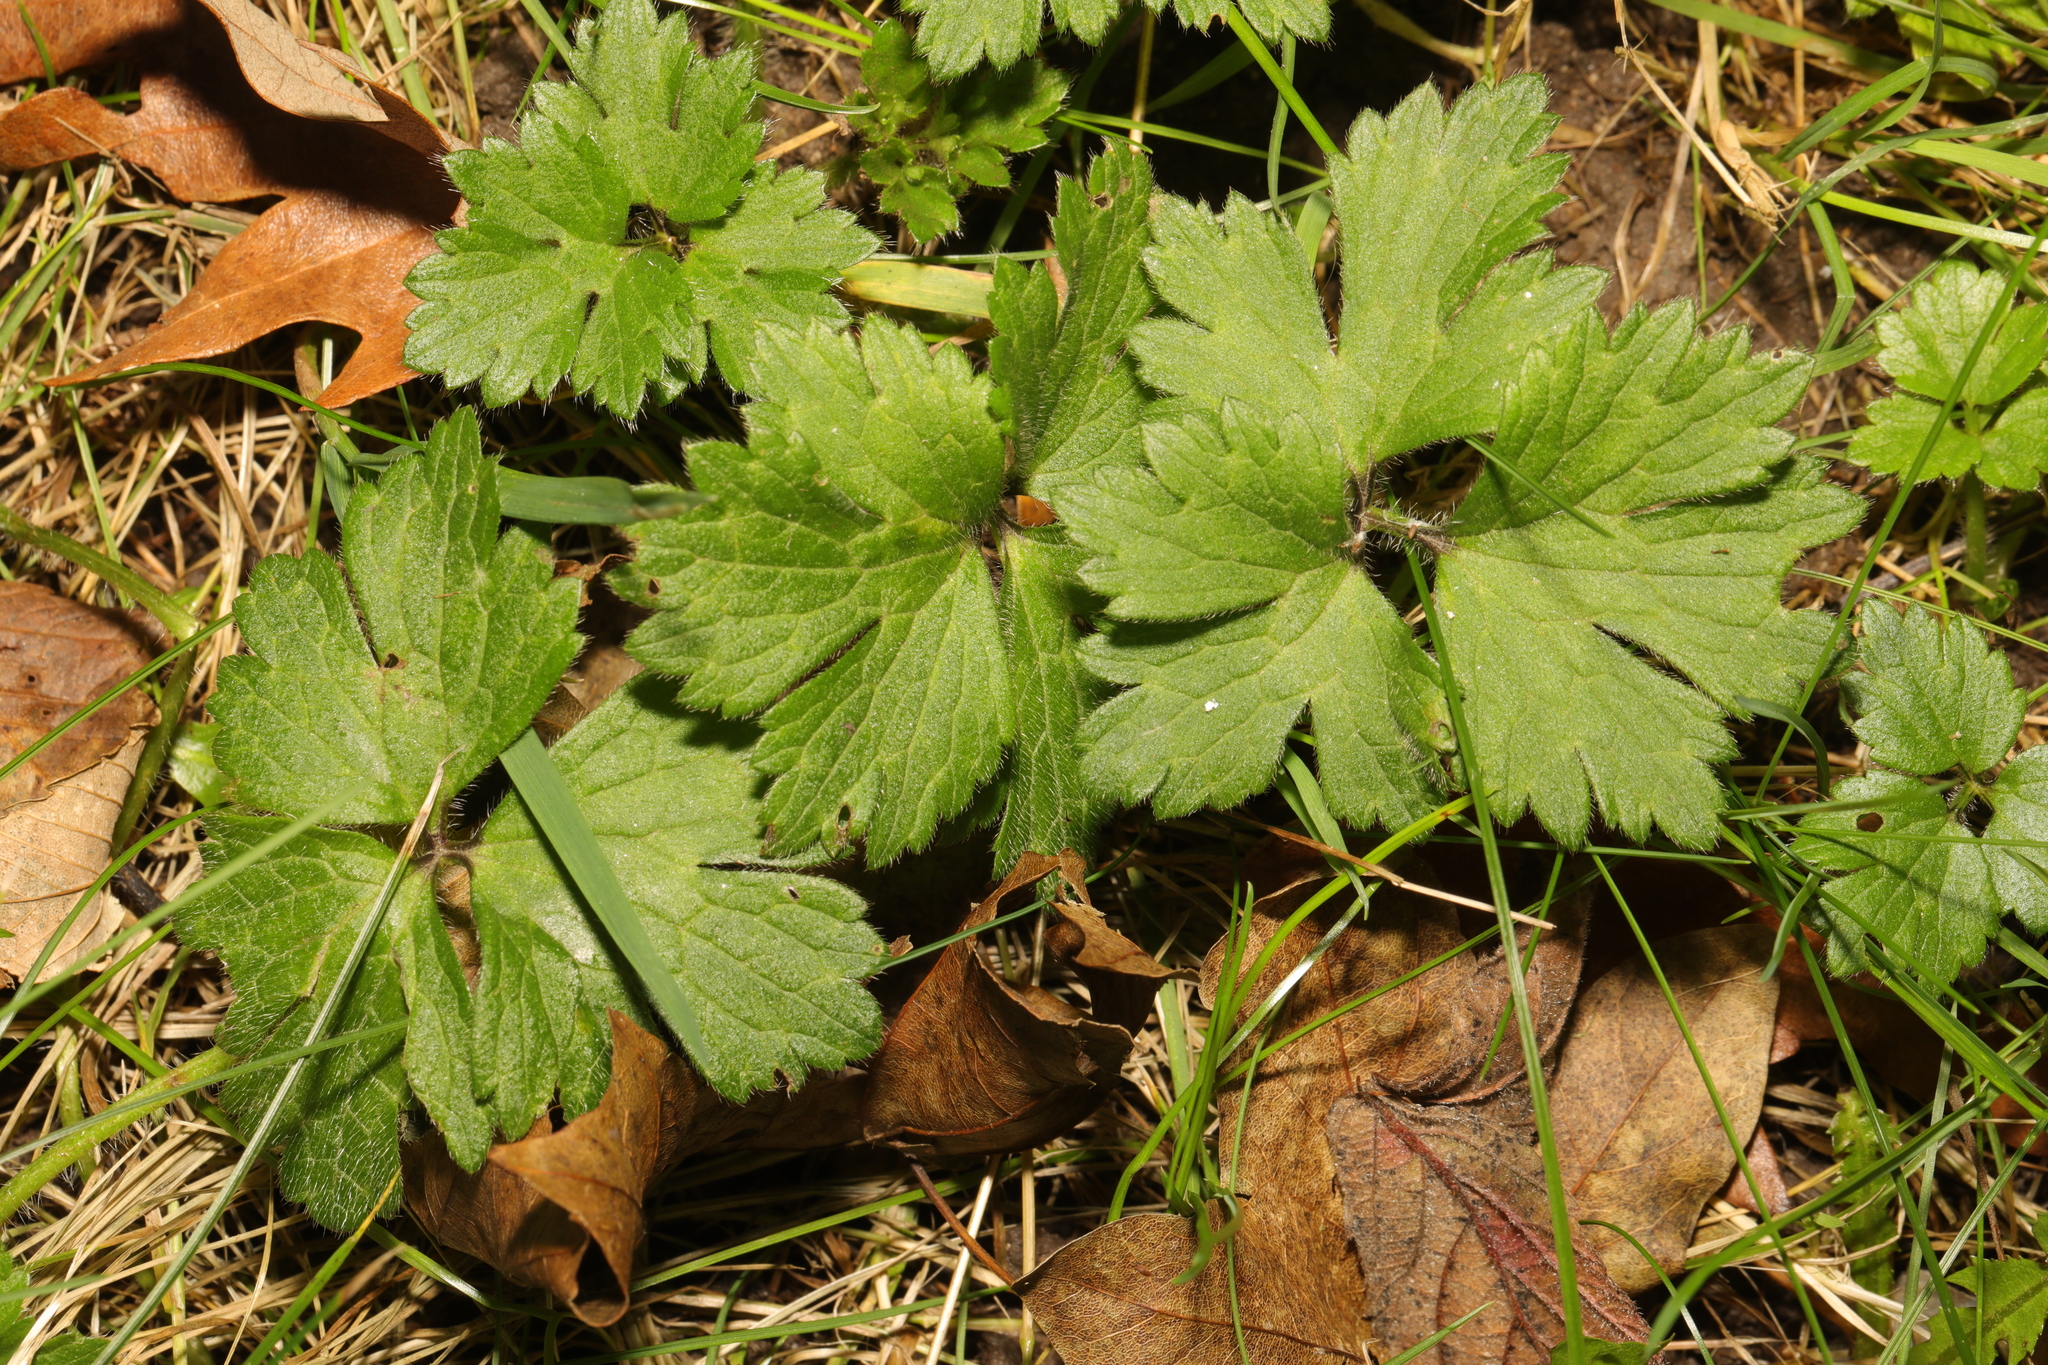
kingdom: Plantae
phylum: Tracheophyta
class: Magnoliopsida
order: Ranunculales
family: Ranunculaceae
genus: Ranunculus
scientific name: Ranunculus repens
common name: Creeping buttercup
